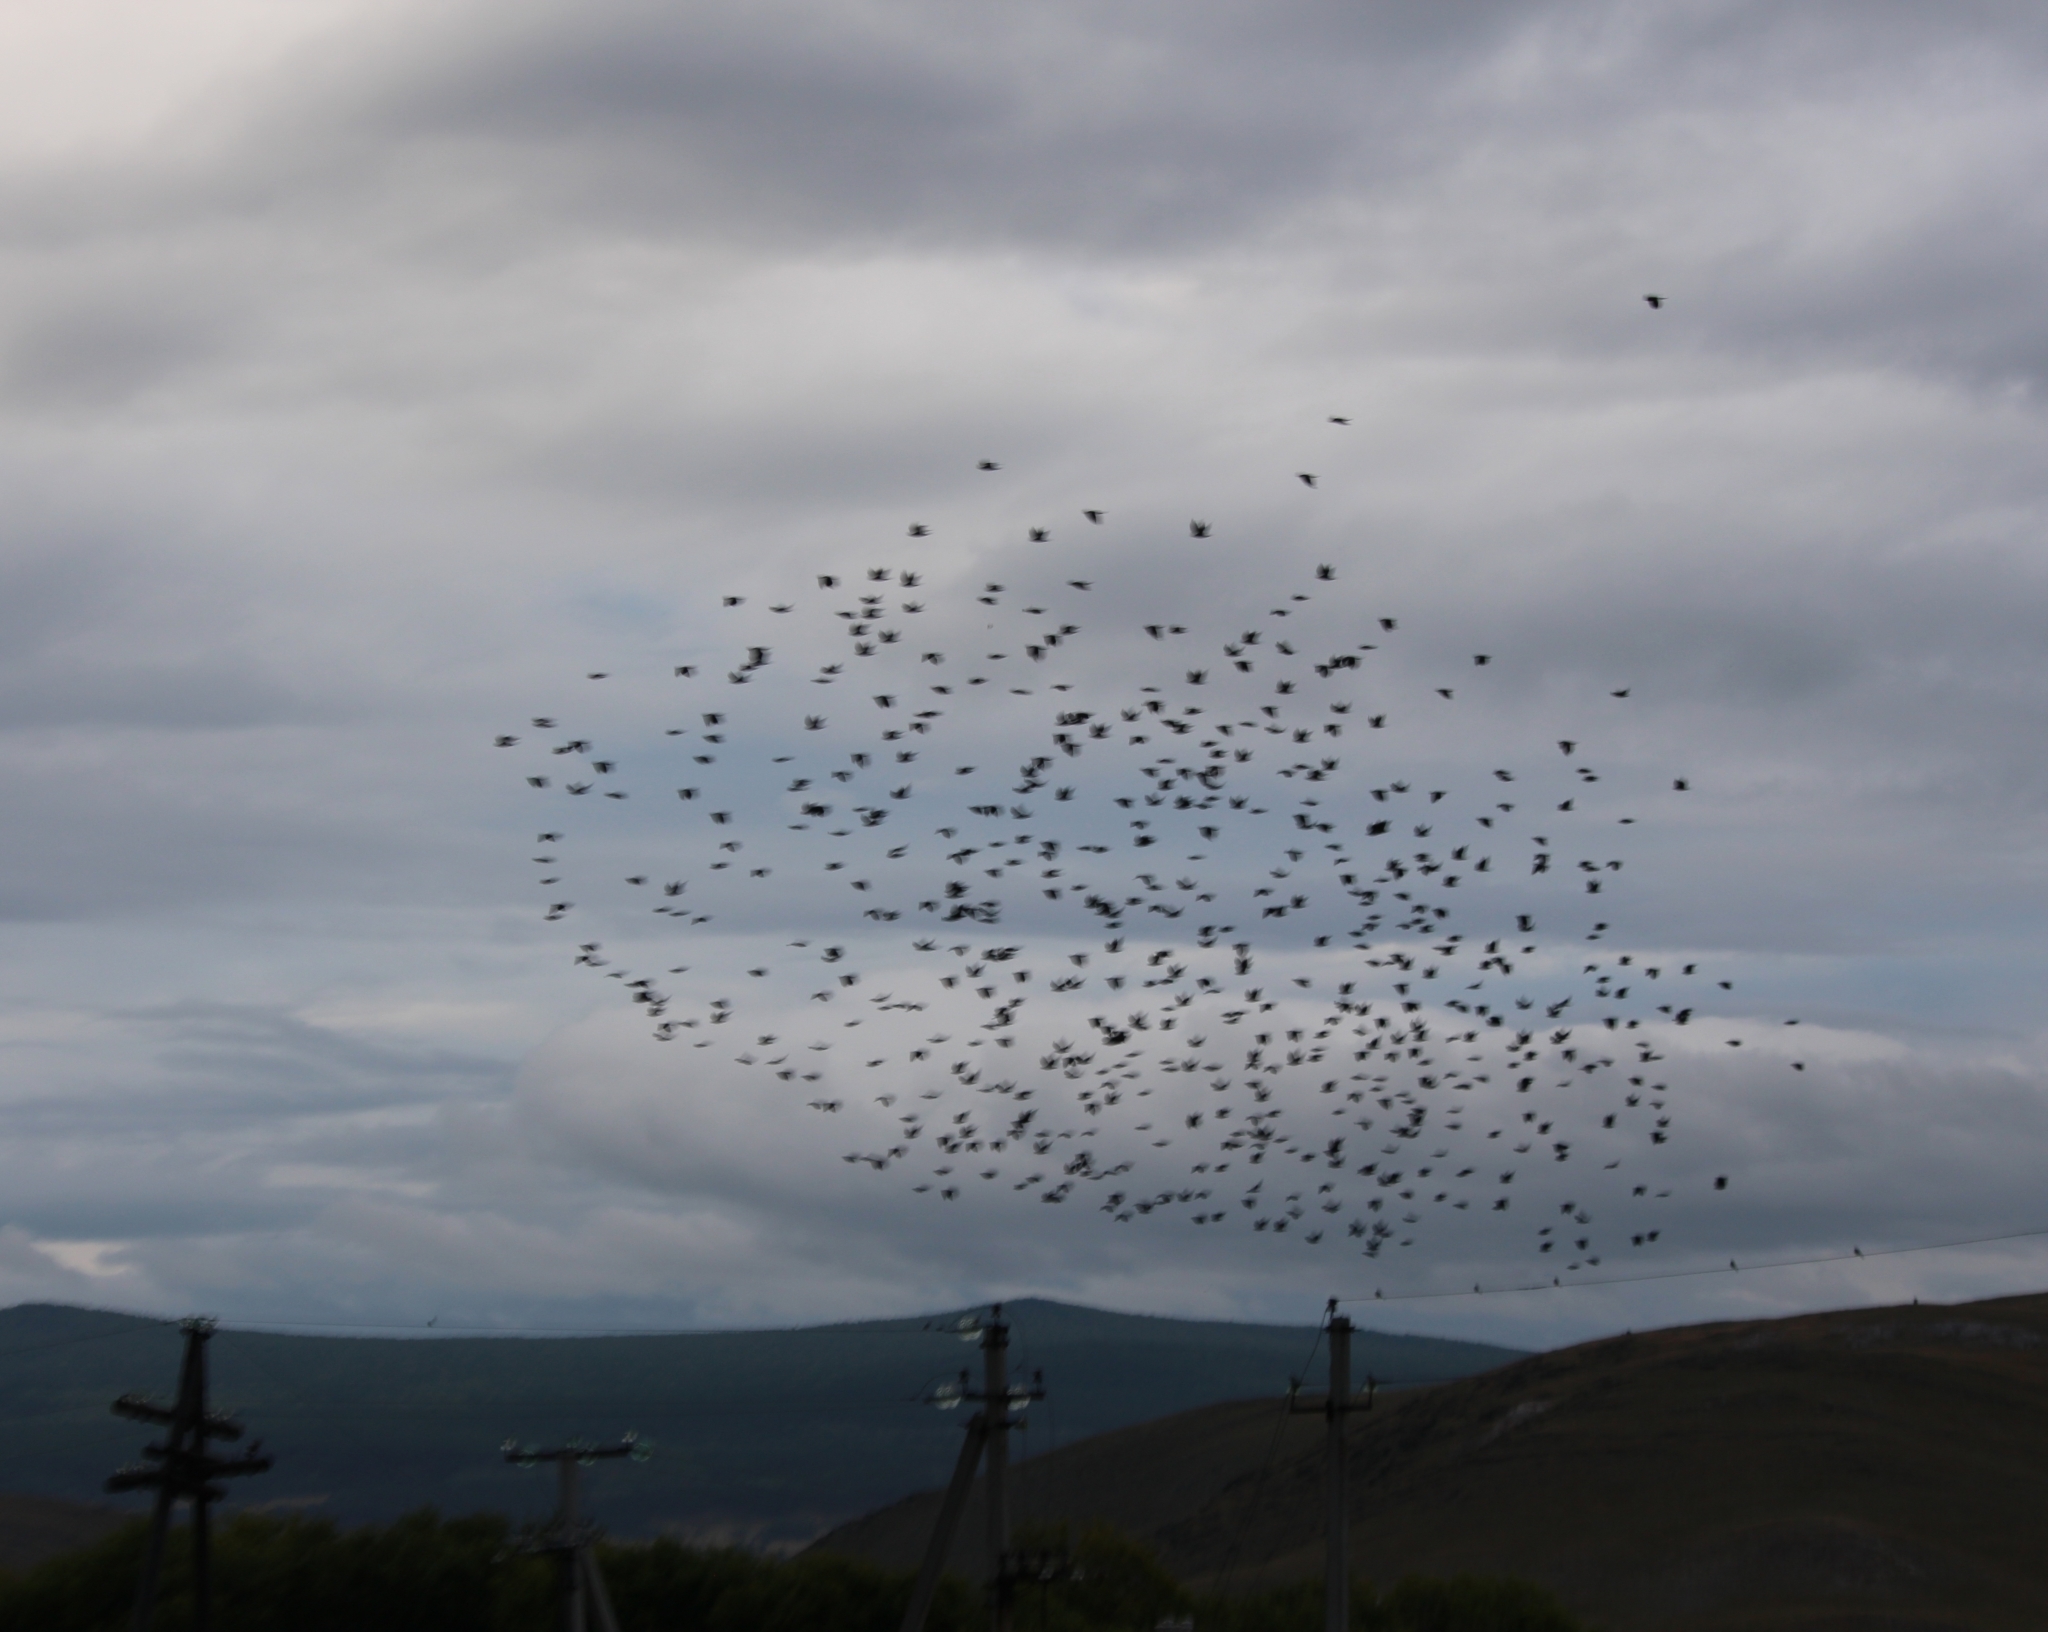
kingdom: Animalia
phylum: Chordata
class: Aves
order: Passeriformes
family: Corvidae
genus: Coloeus
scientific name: Coloeus dauuricus
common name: Daurian jackdaw
